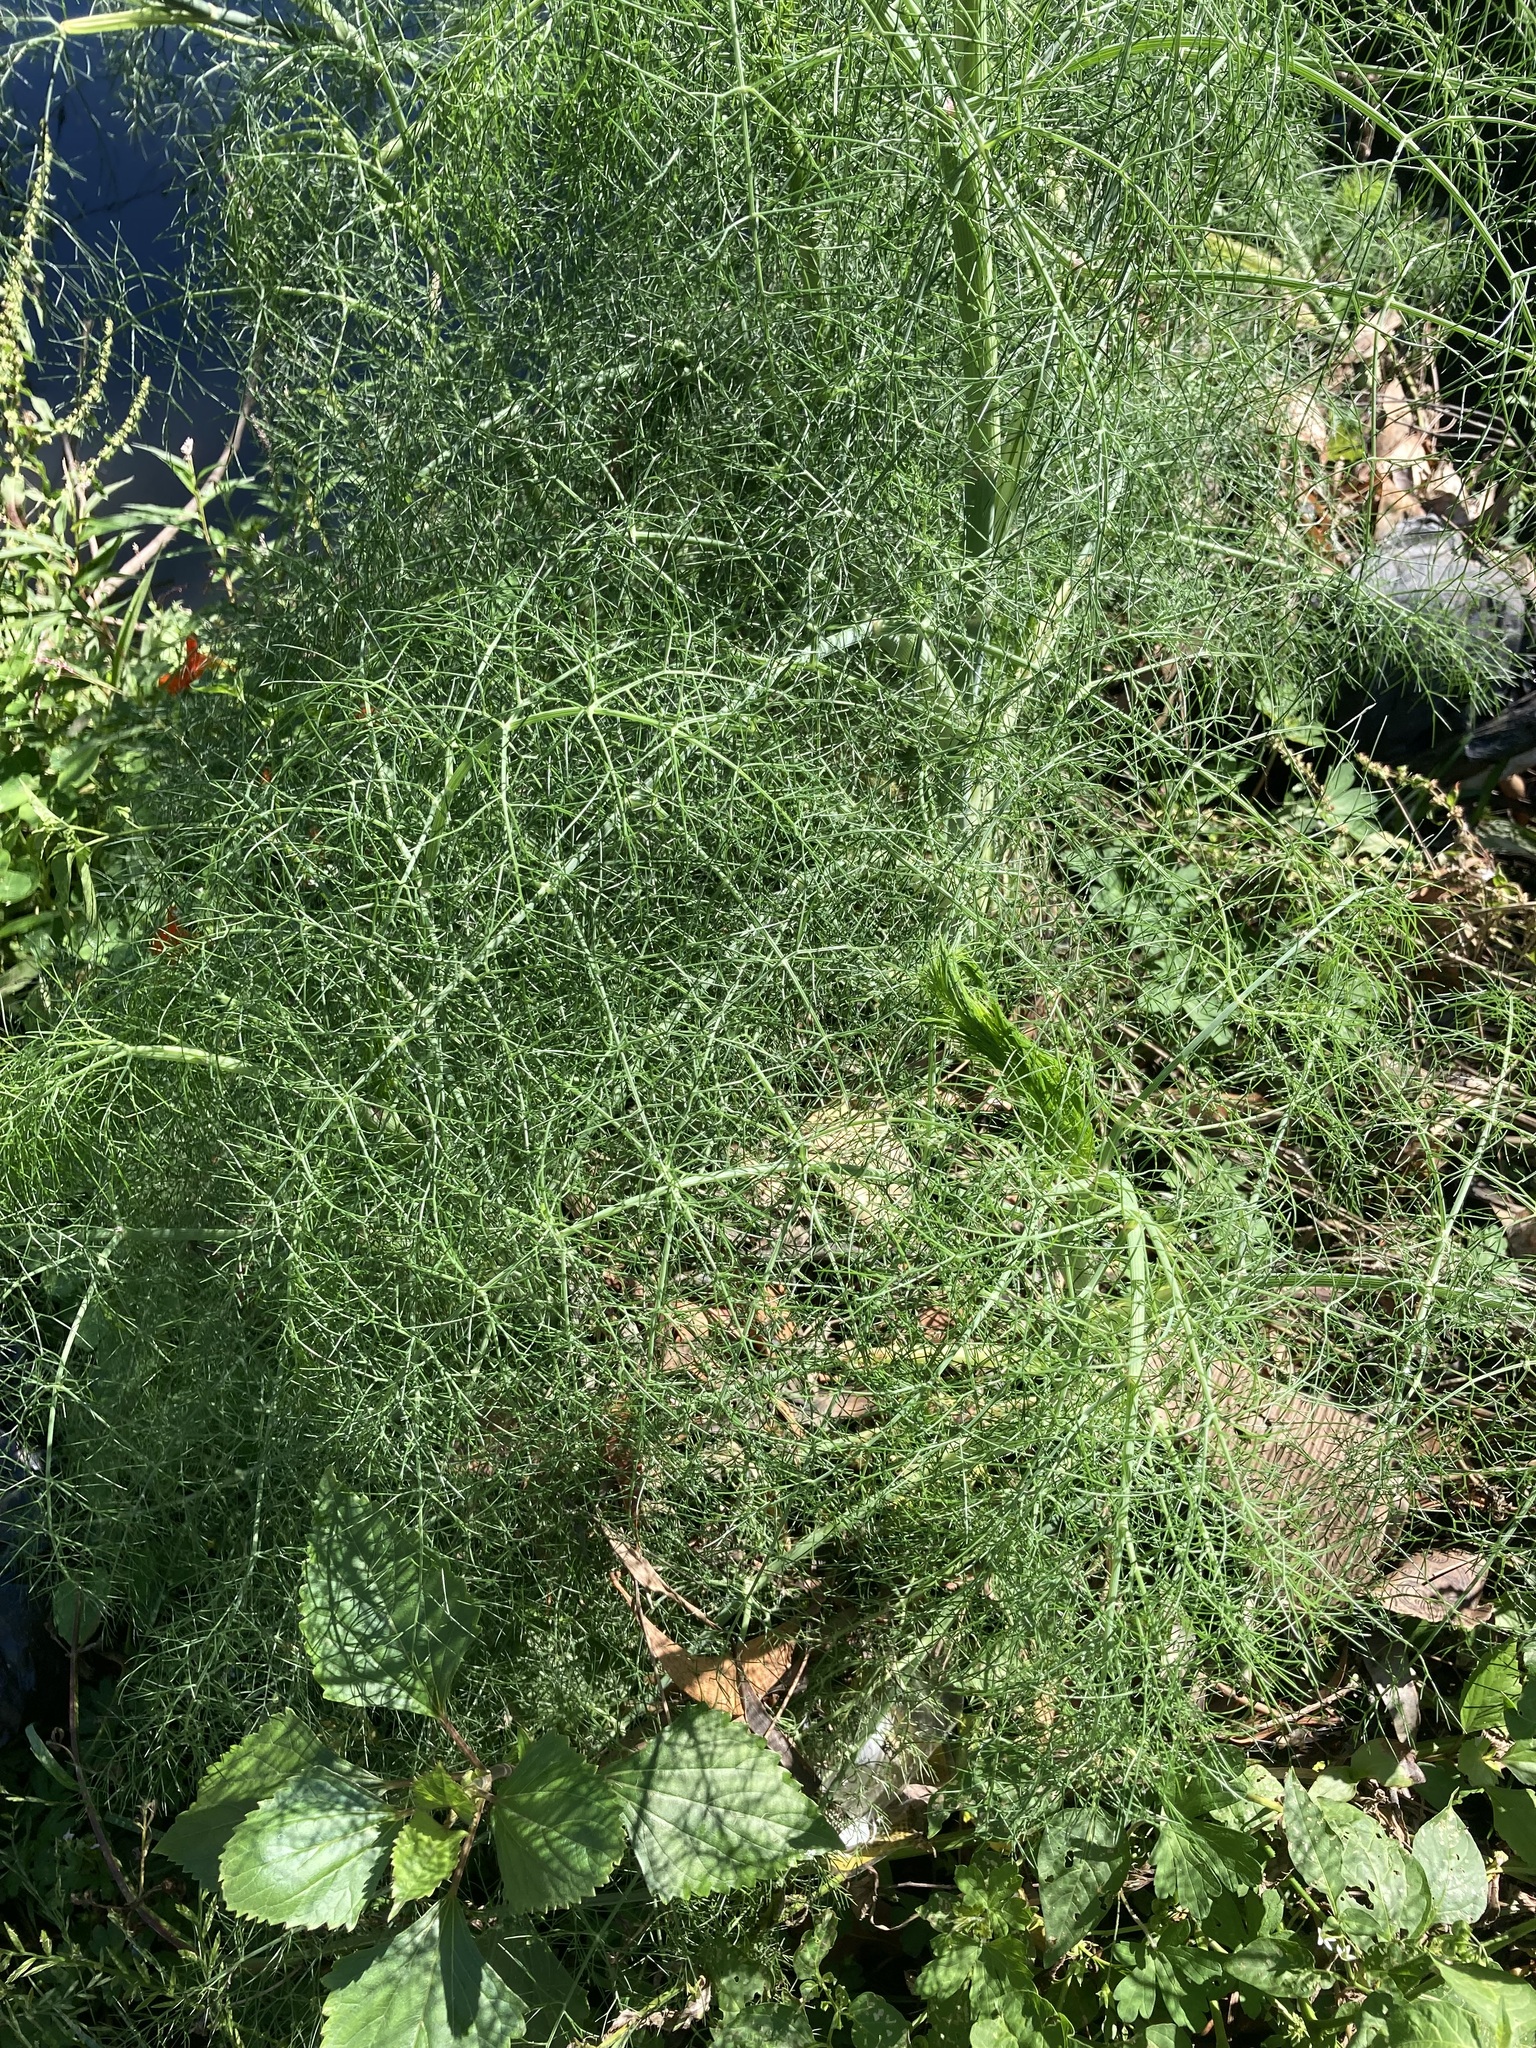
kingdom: Plantae
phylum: Tracheophyta
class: Magnoliopsida
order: Apiales
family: Apiaceae
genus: Foeniculum
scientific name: Foeniculum vulgare
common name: Fennel
